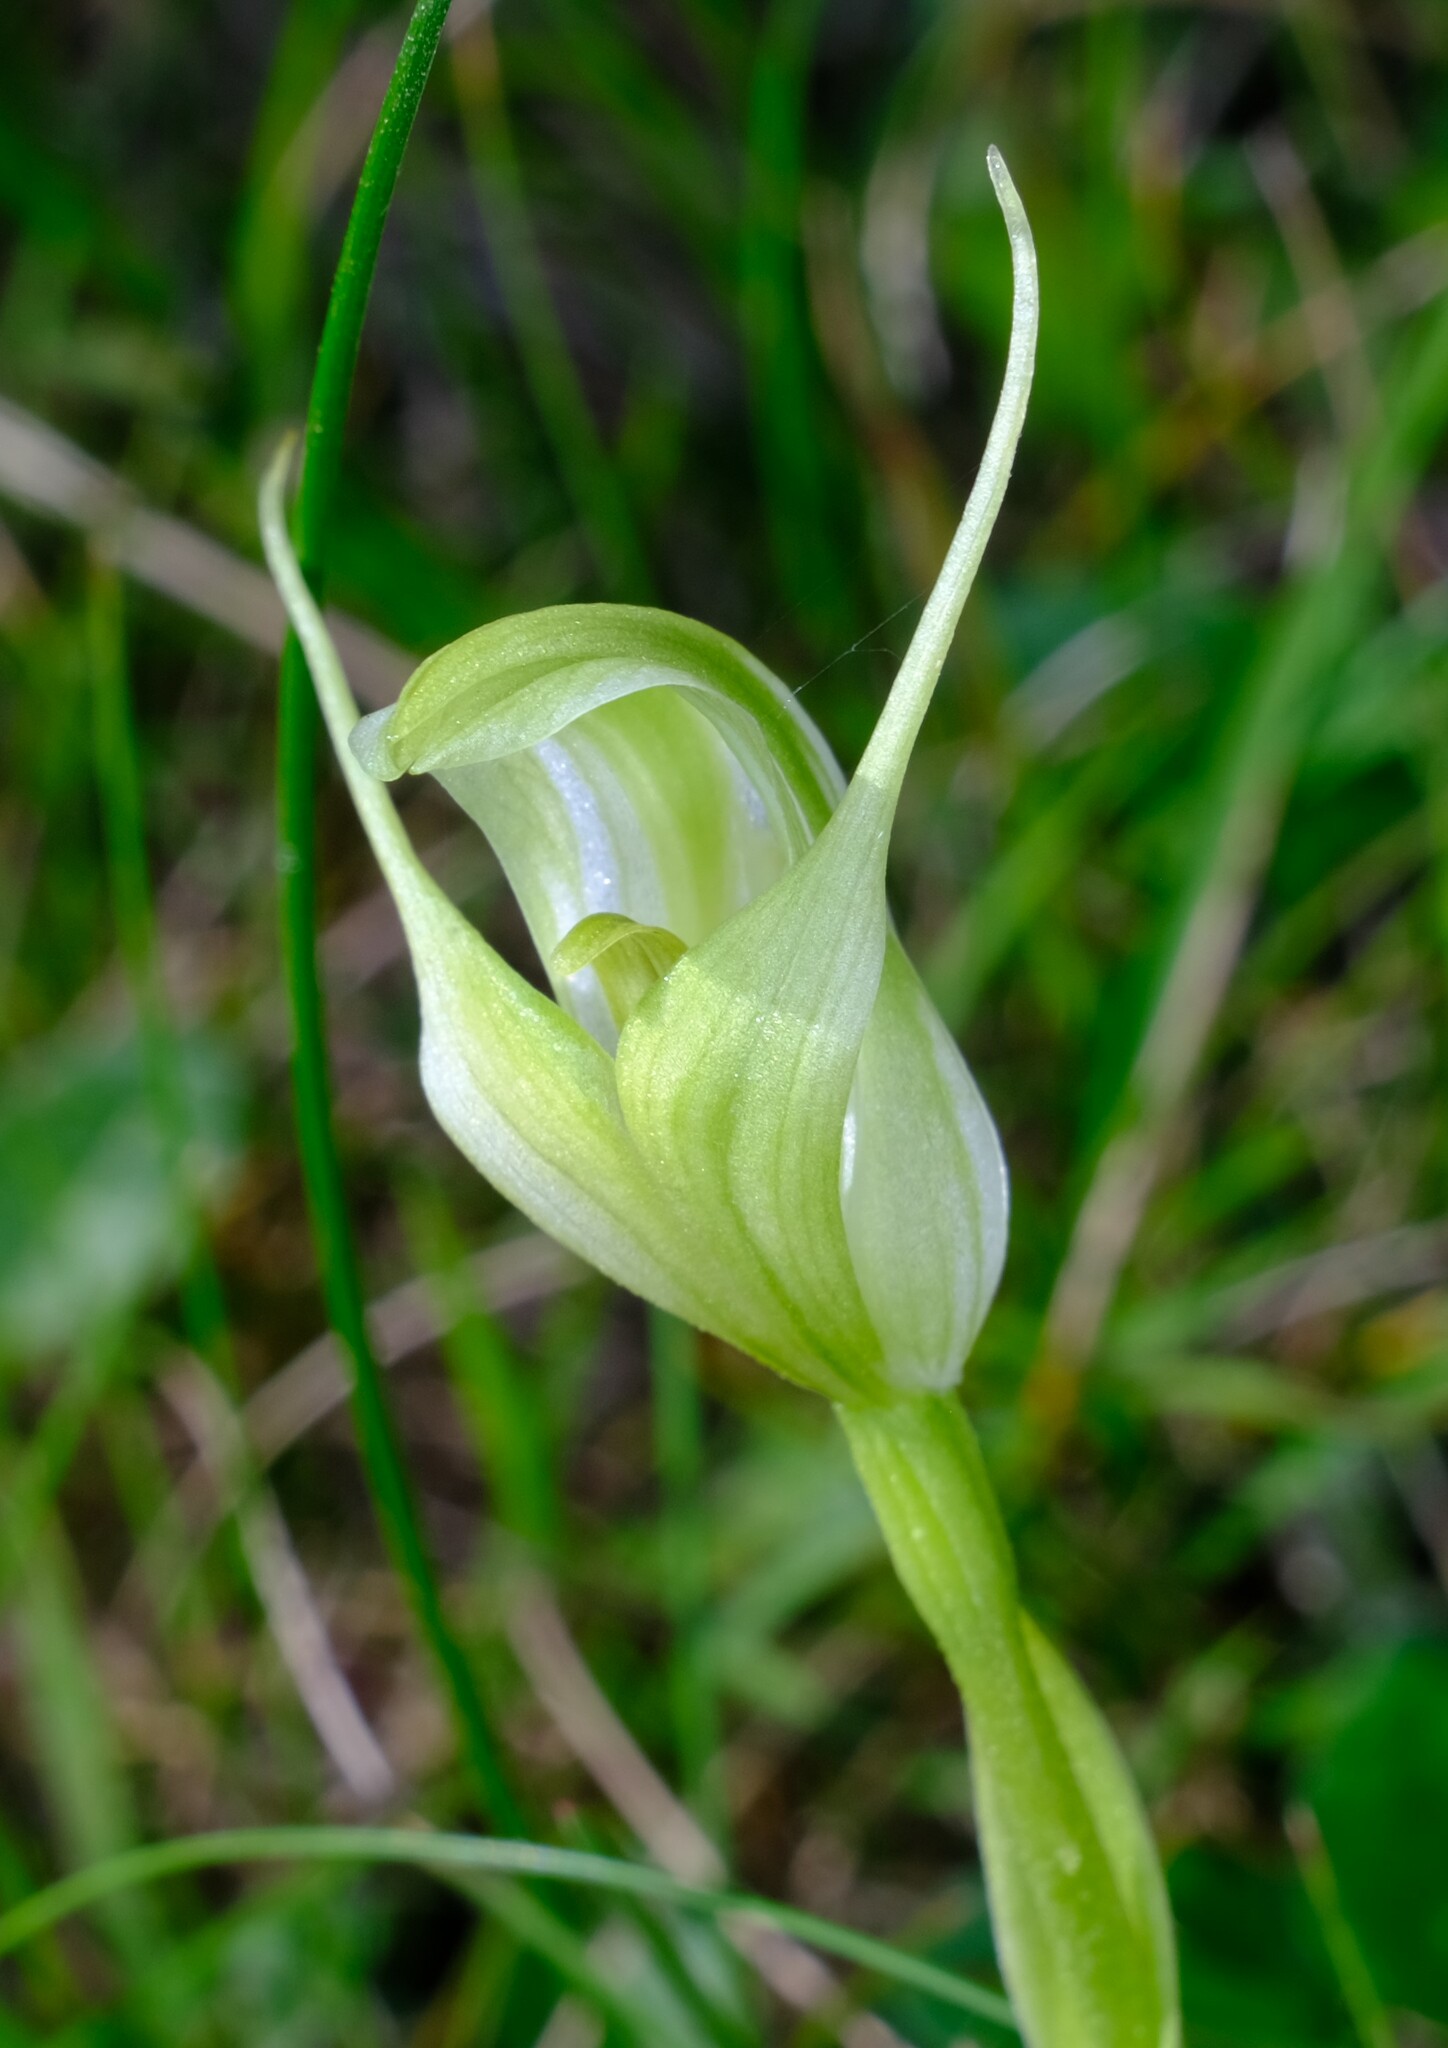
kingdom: Plantae
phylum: Tracheophyta
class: Liliopsida
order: Asparagales
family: Orchidaceae
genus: Pterostylis
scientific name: Pterostylis alpina
